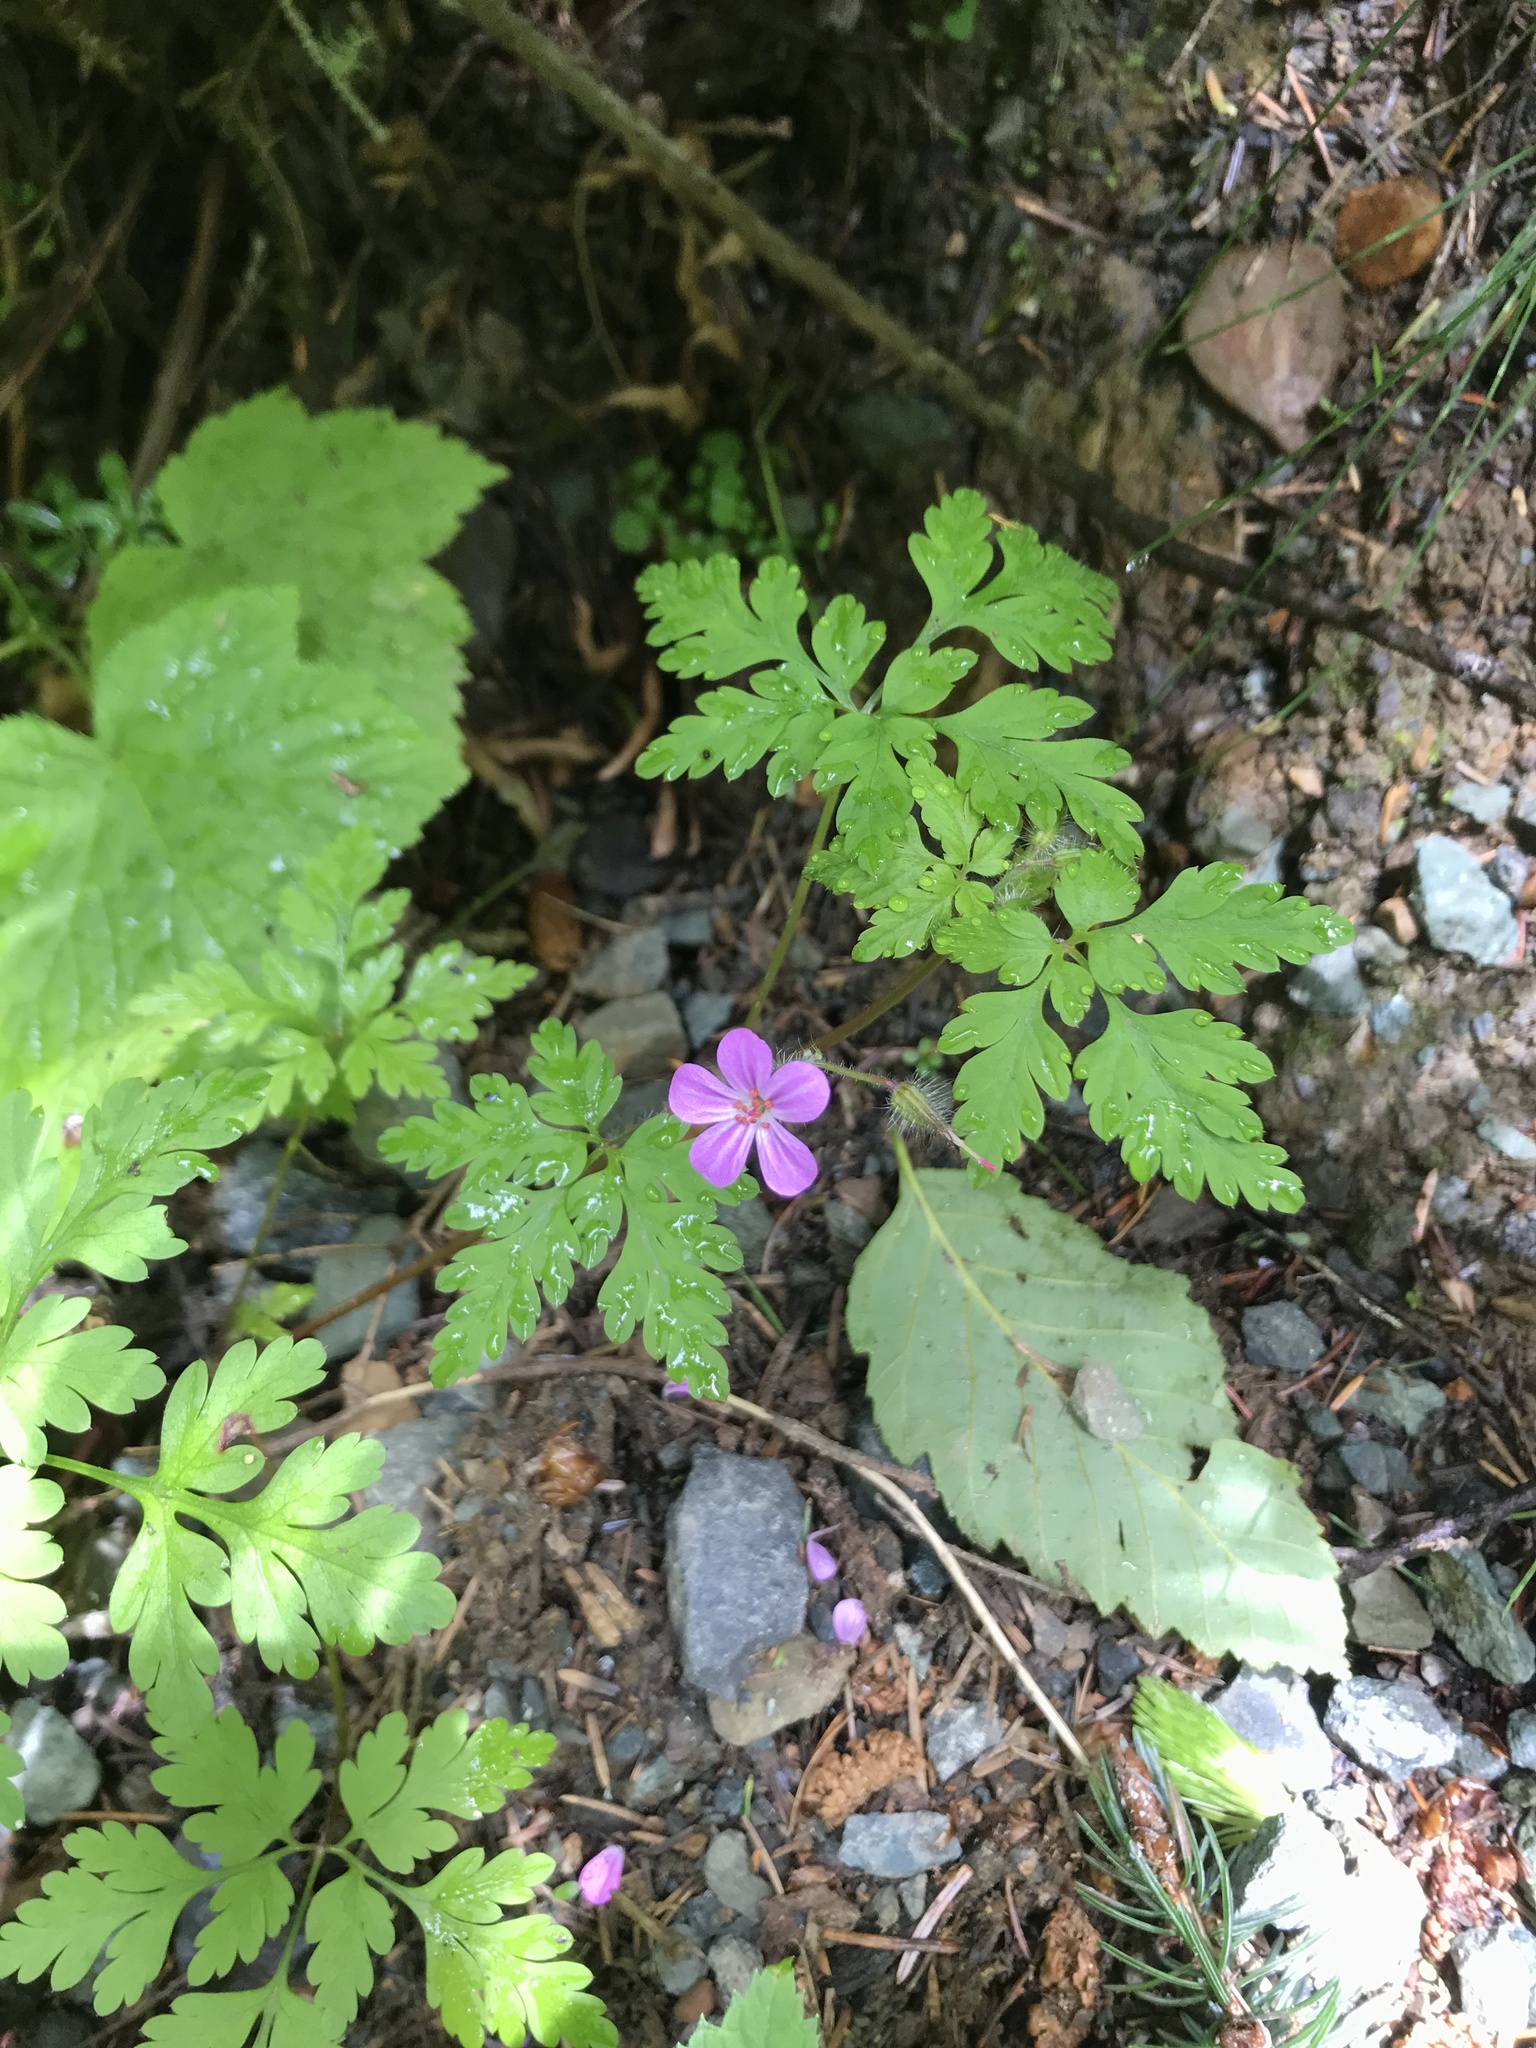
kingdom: Plantae
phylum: Tracheophyta
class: Magnoliopsida
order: Geraniales
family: Geraniaceae
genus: Geranium
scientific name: Geranium robertianum
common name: Herb-robert
